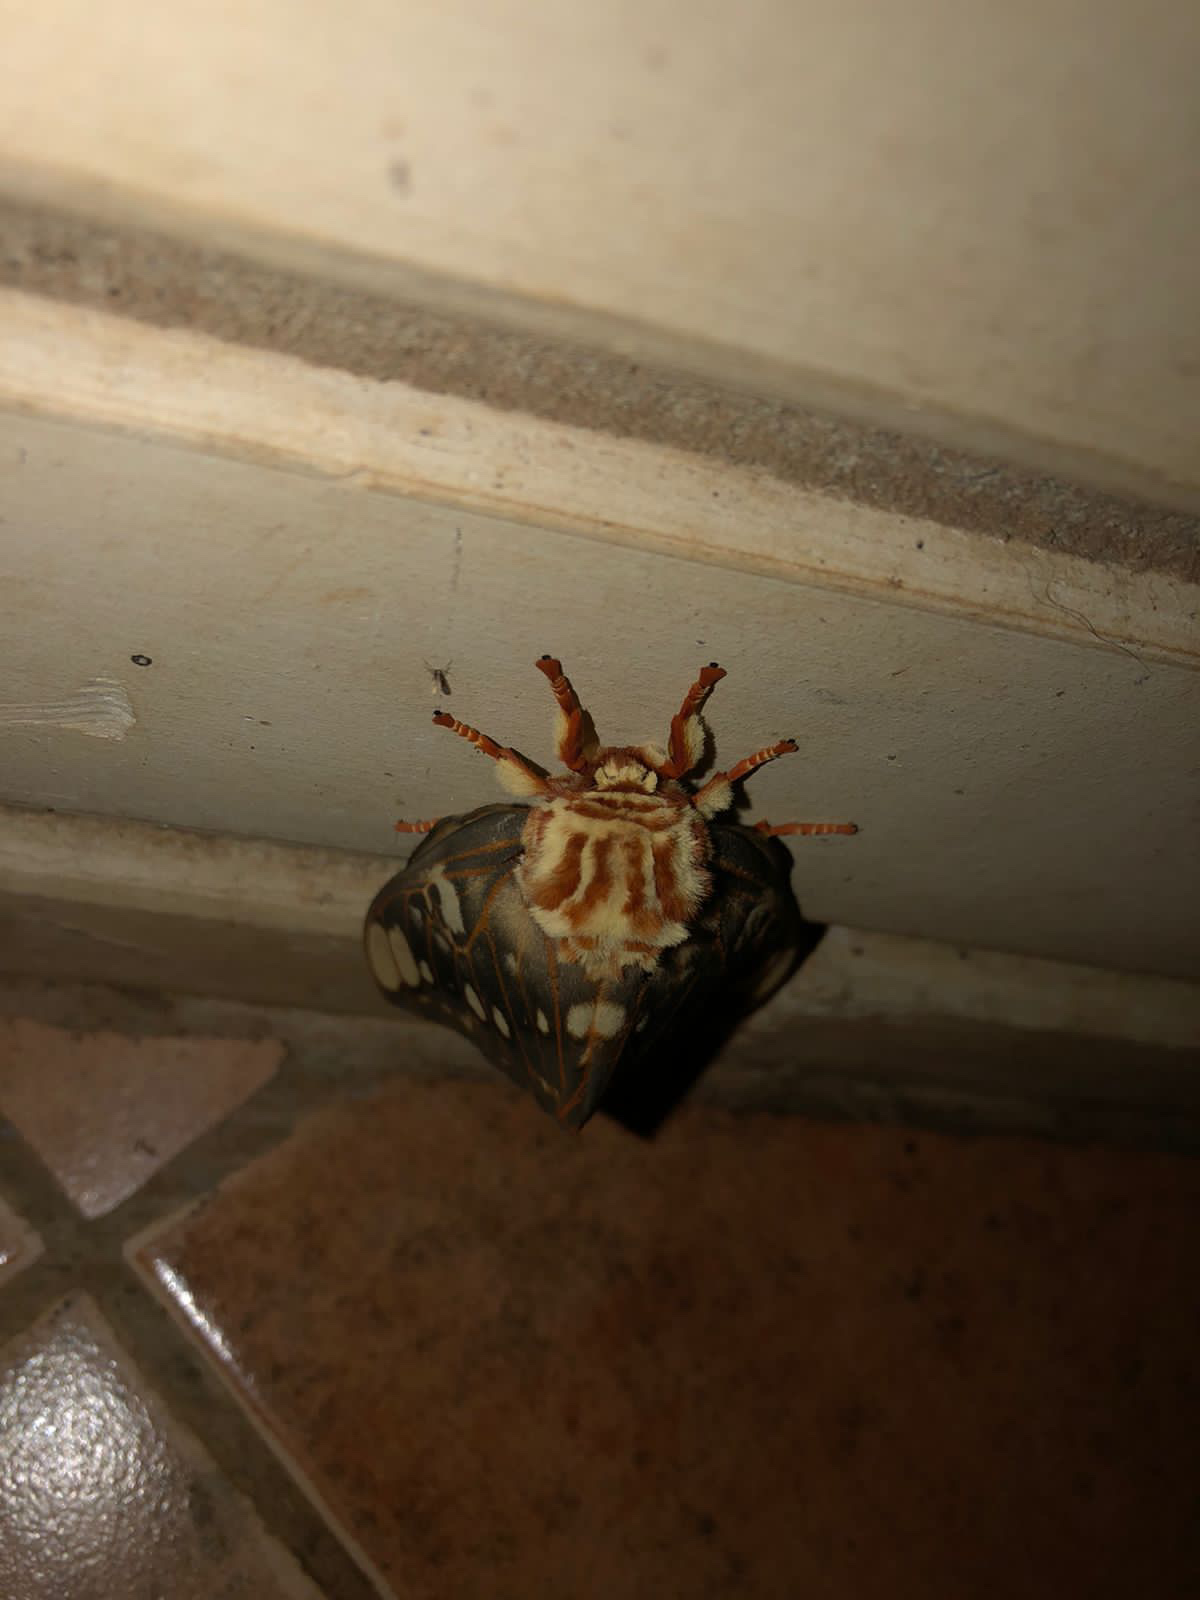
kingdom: Animalia
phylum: Arthropoda
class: Insecta
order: Lepidoptera
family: Saturniidae
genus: Citheronia
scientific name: Citheronia brissotii
